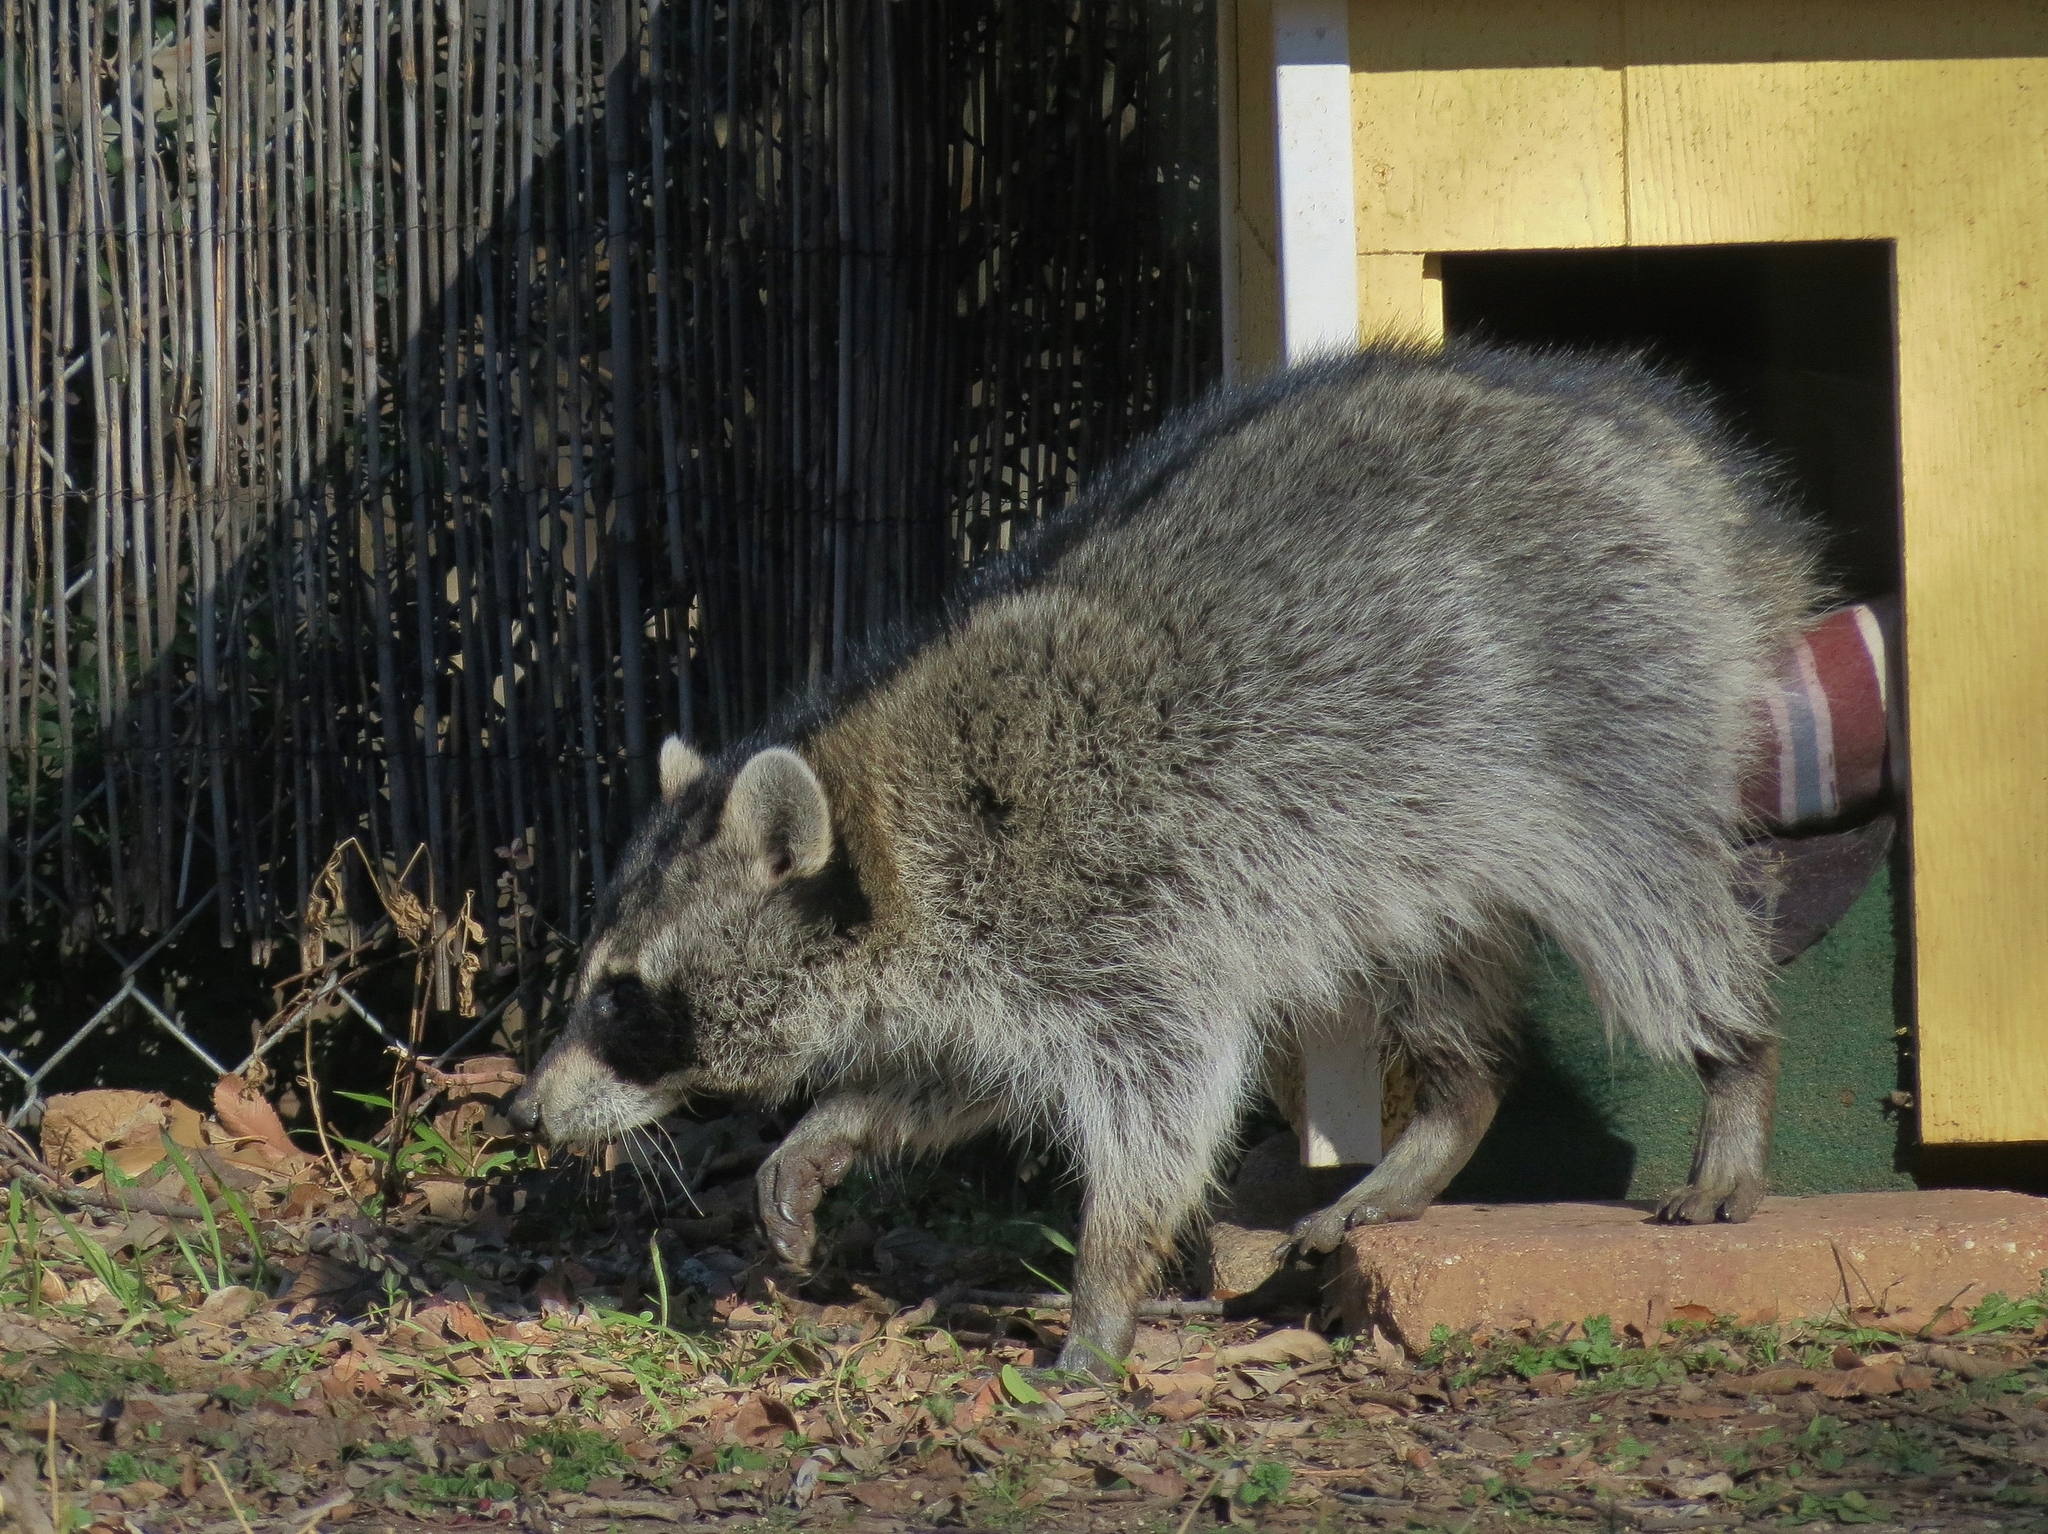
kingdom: Animalia
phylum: Chordata
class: Mammalia
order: Carnivora
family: Procyonidae
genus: Procyon
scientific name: Procyon lotor
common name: Raccoon
